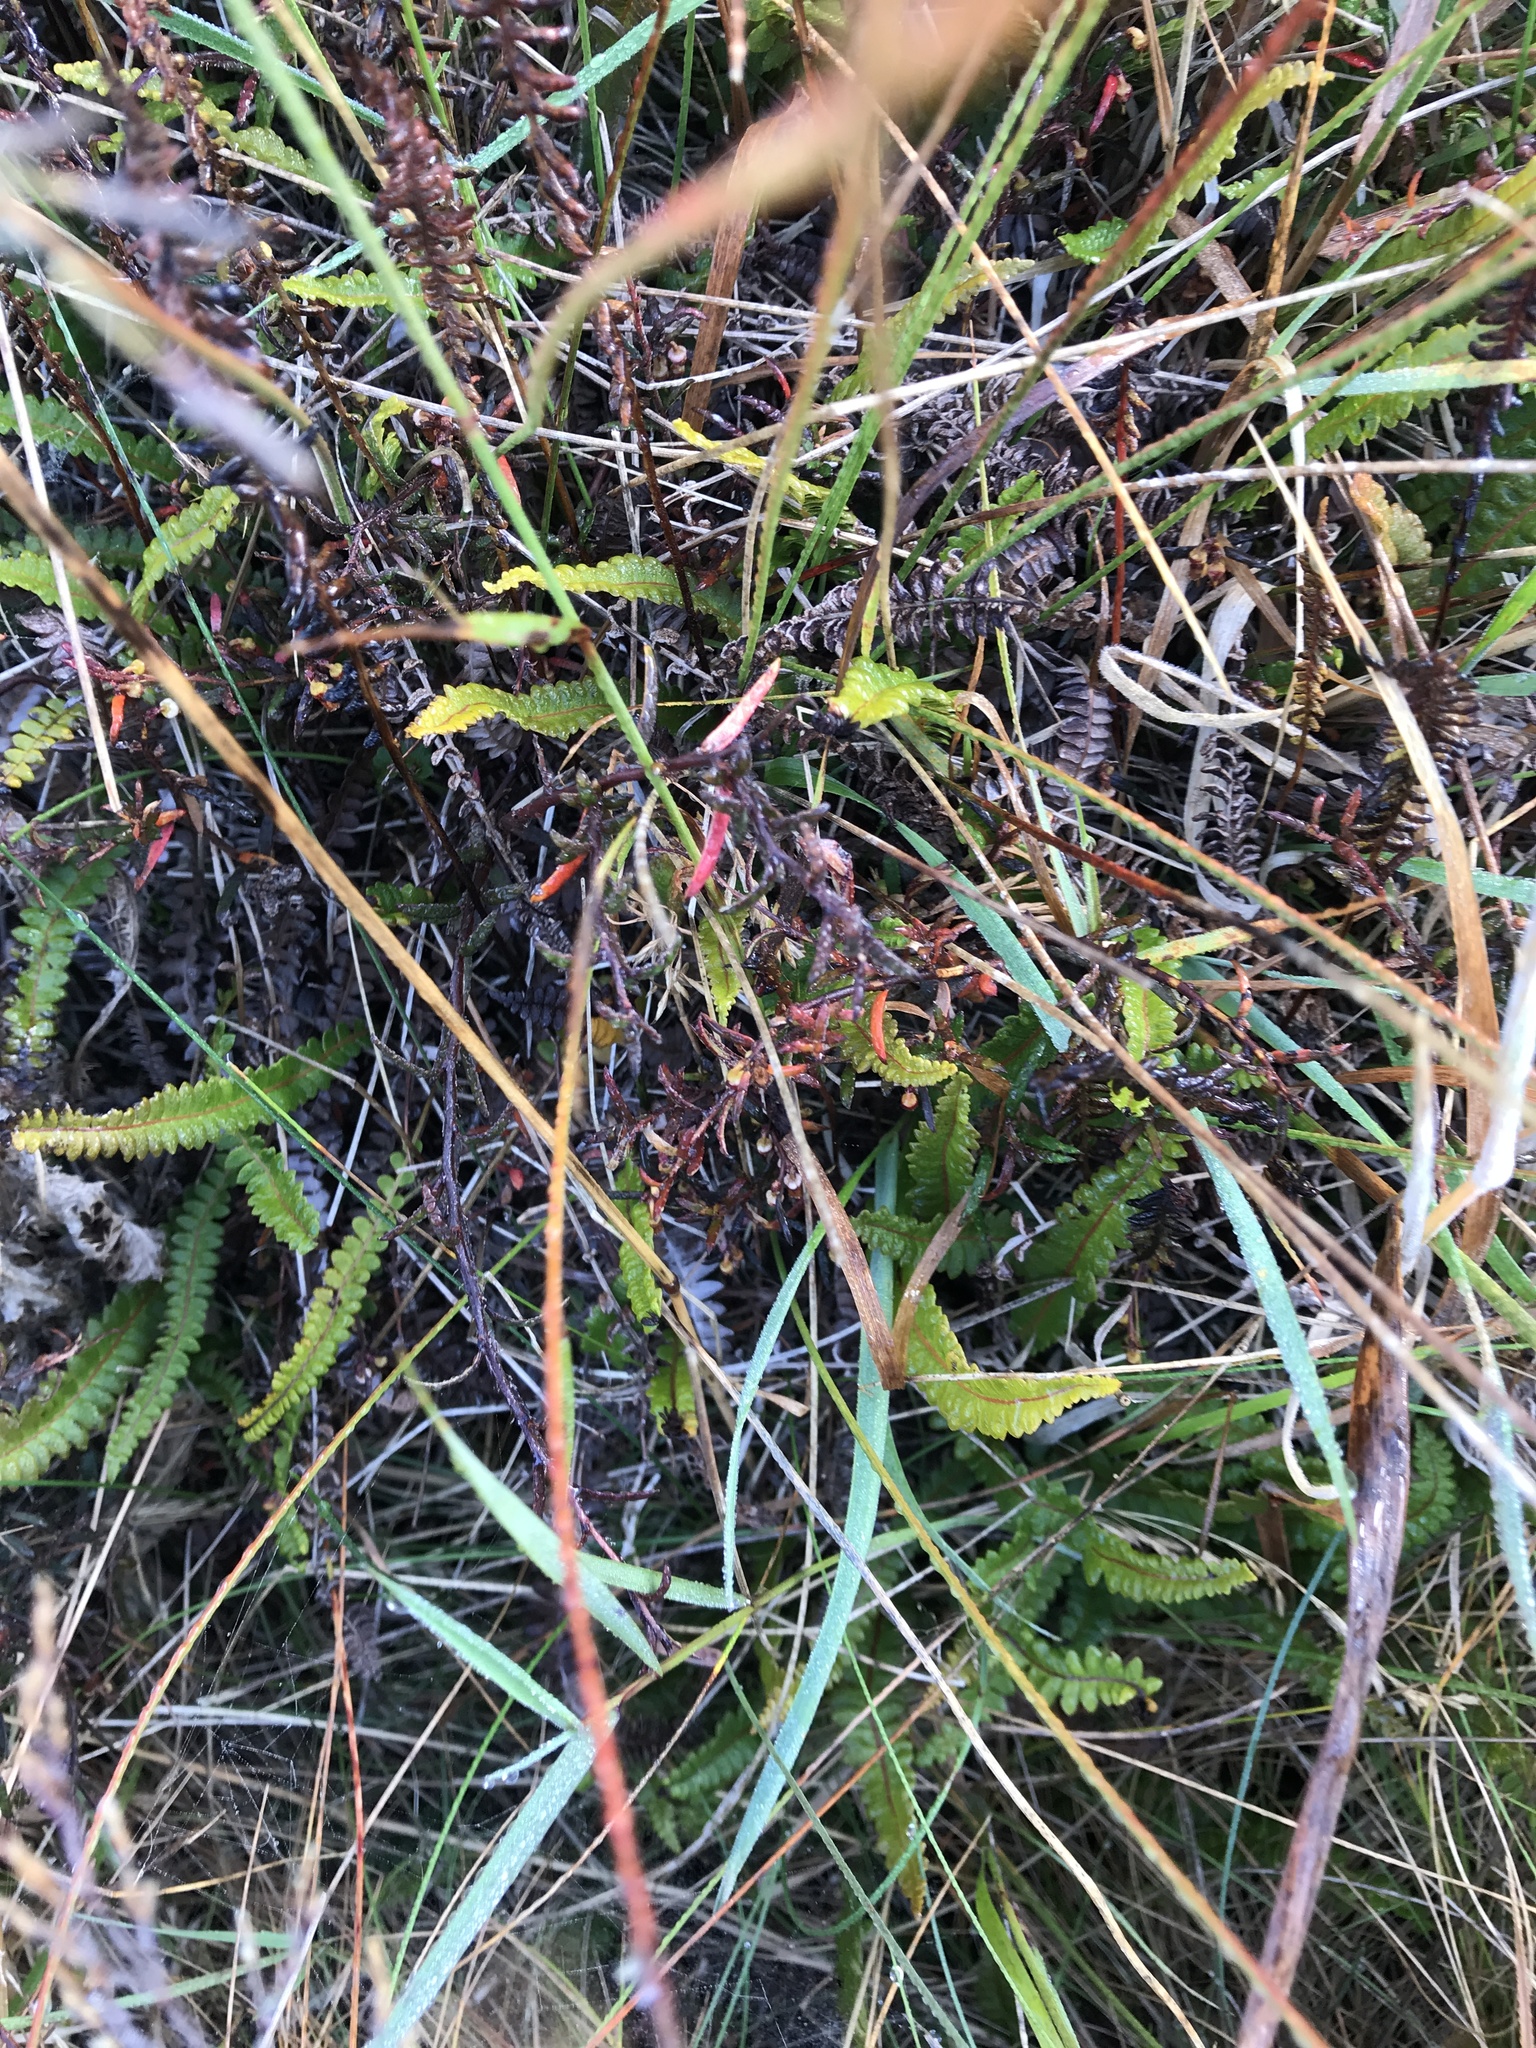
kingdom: Plantae
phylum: Tracheophyta
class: Polypodiopsida
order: Polypodiales
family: Blechnaceae
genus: Austroblechnum
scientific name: Austroblechnum penna-marina
